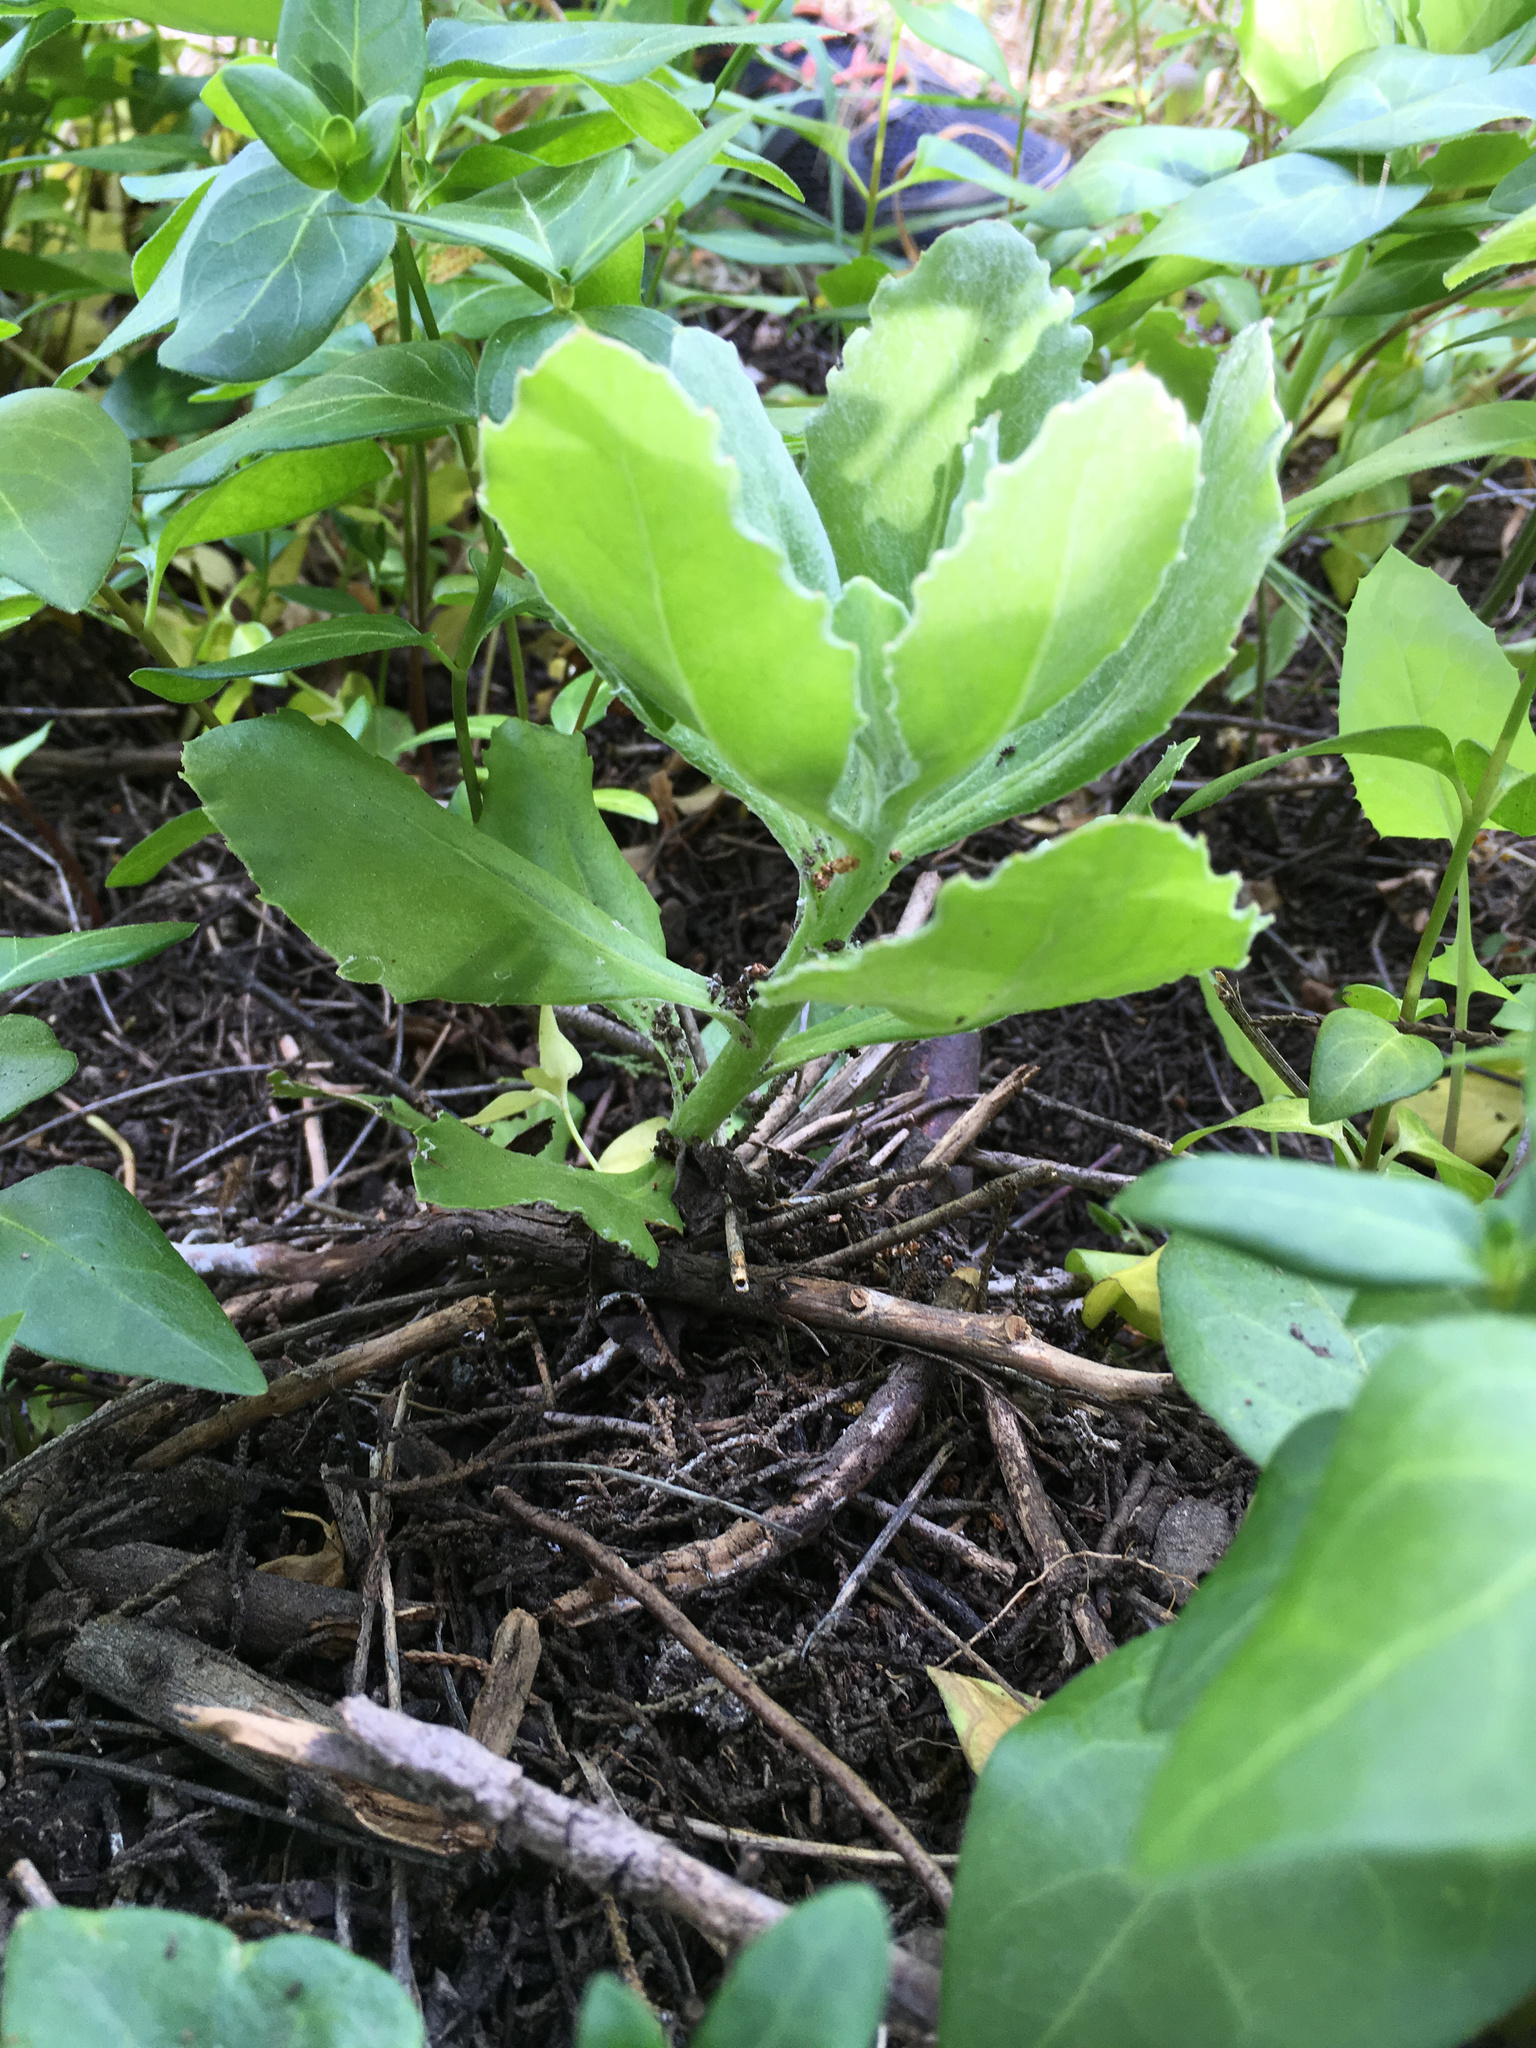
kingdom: Plantae
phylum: Tracheophyta
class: Magnoliopsida
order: Asterales
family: Asteraceae
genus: Osteospermum
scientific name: Osteospermum moniliferum
